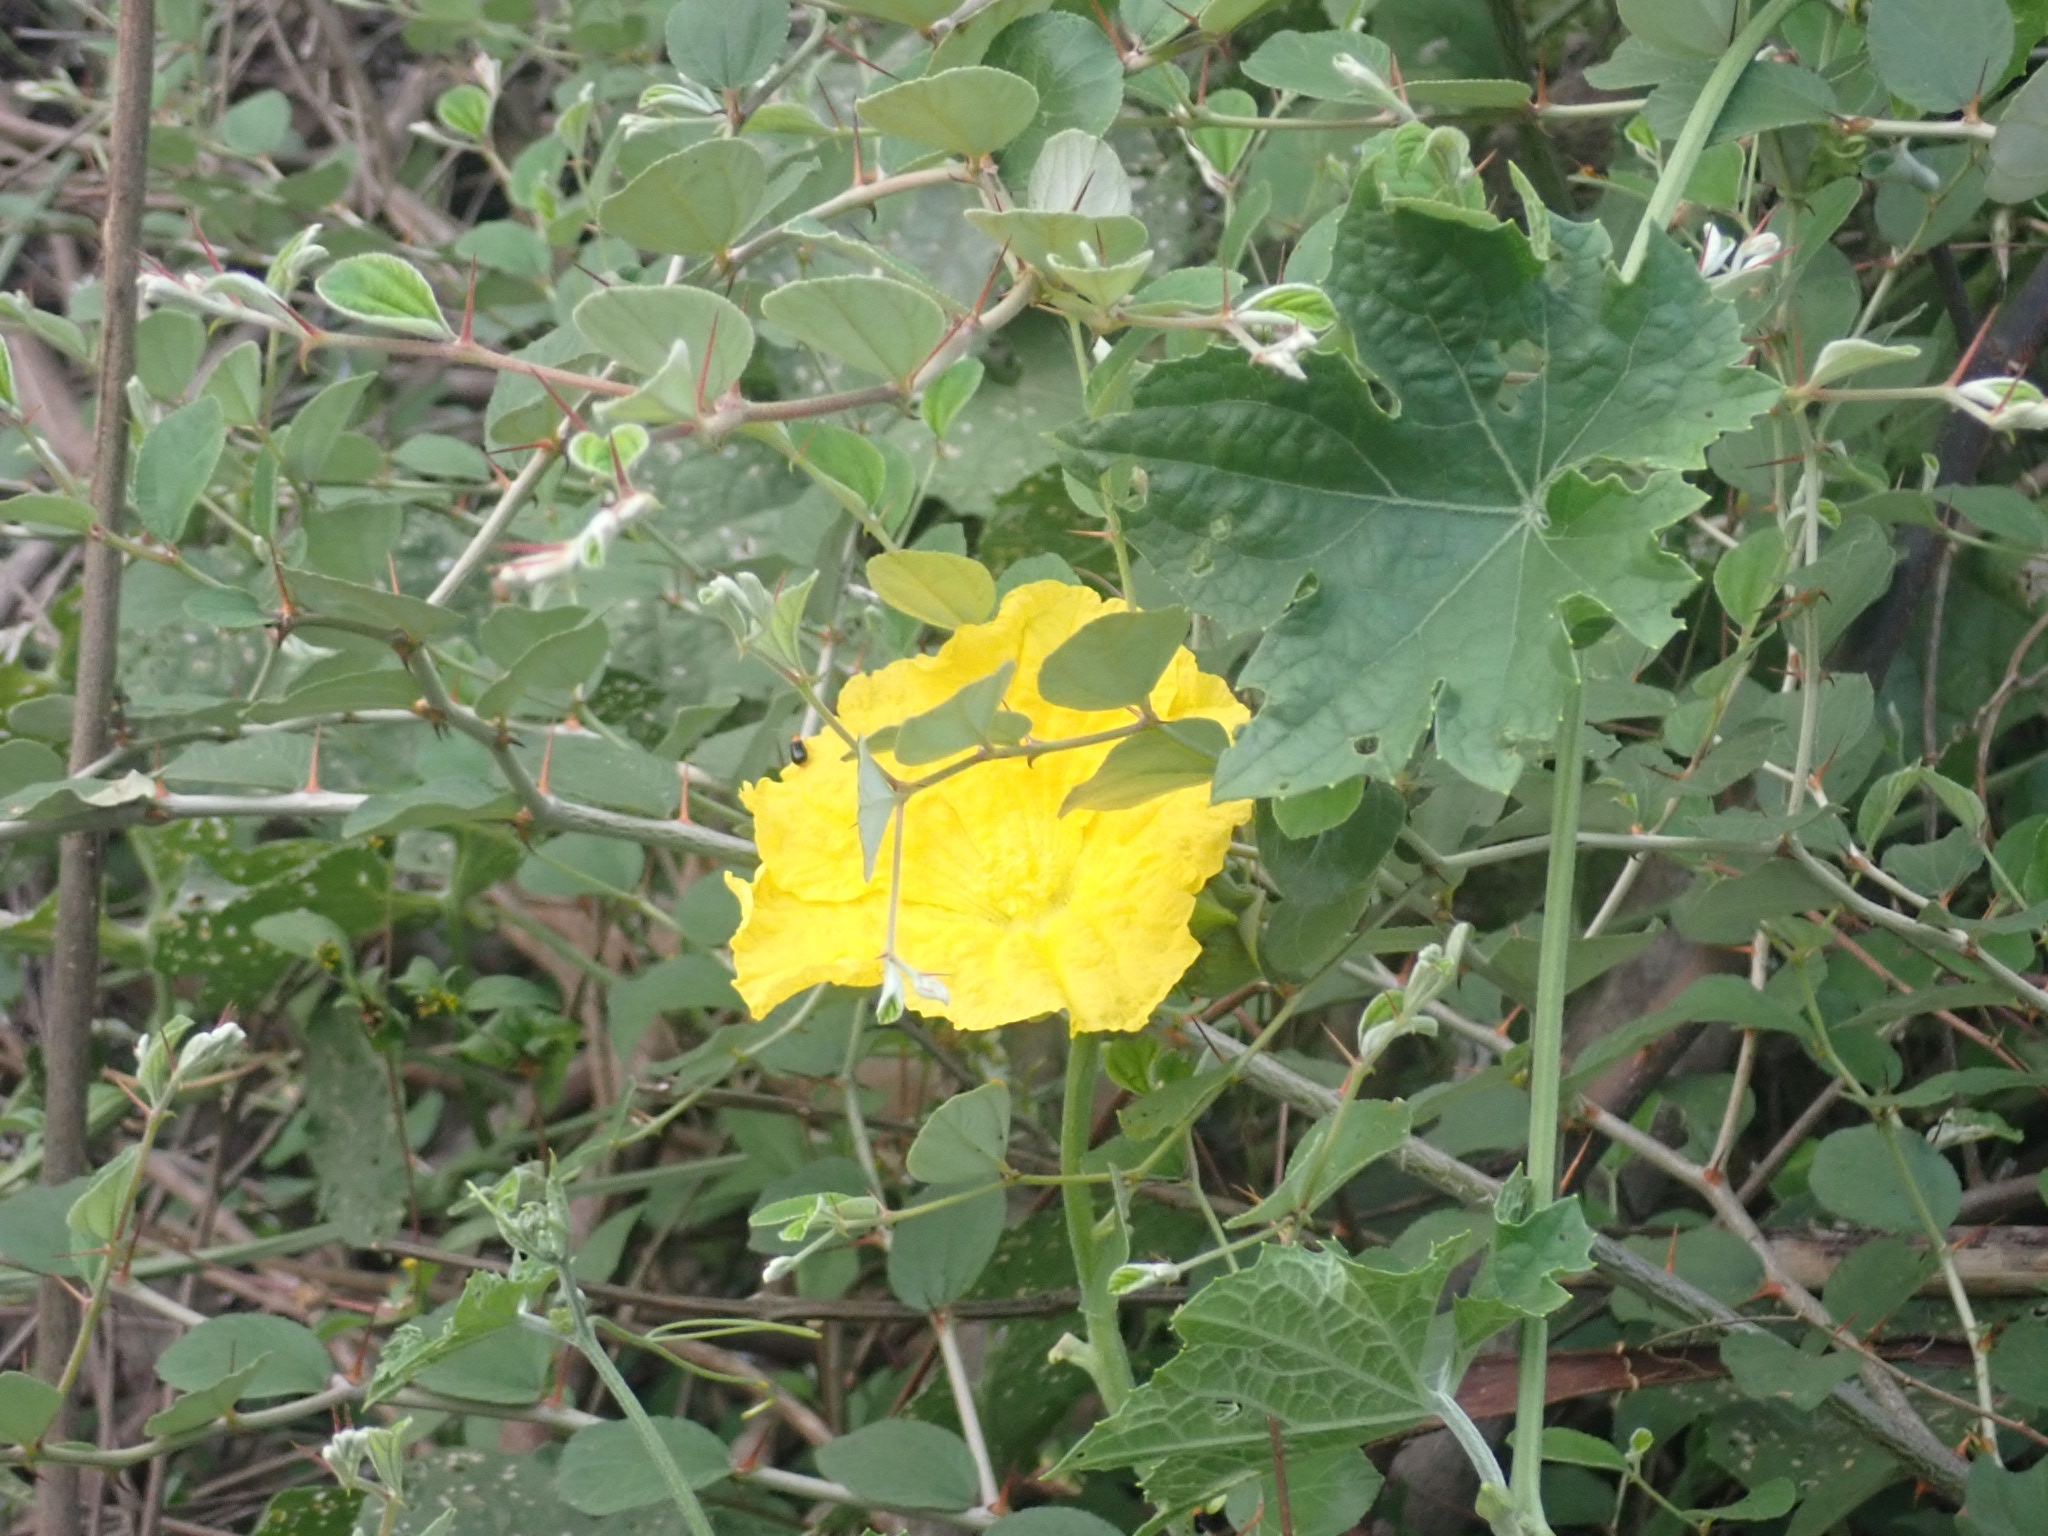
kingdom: Plantae
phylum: Tracheophyta
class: Magnoliopsida
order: Cucurbitales
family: Cucurbitaceae
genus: Luffa
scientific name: Luffa aegyptiaca
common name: Sponge gourd
